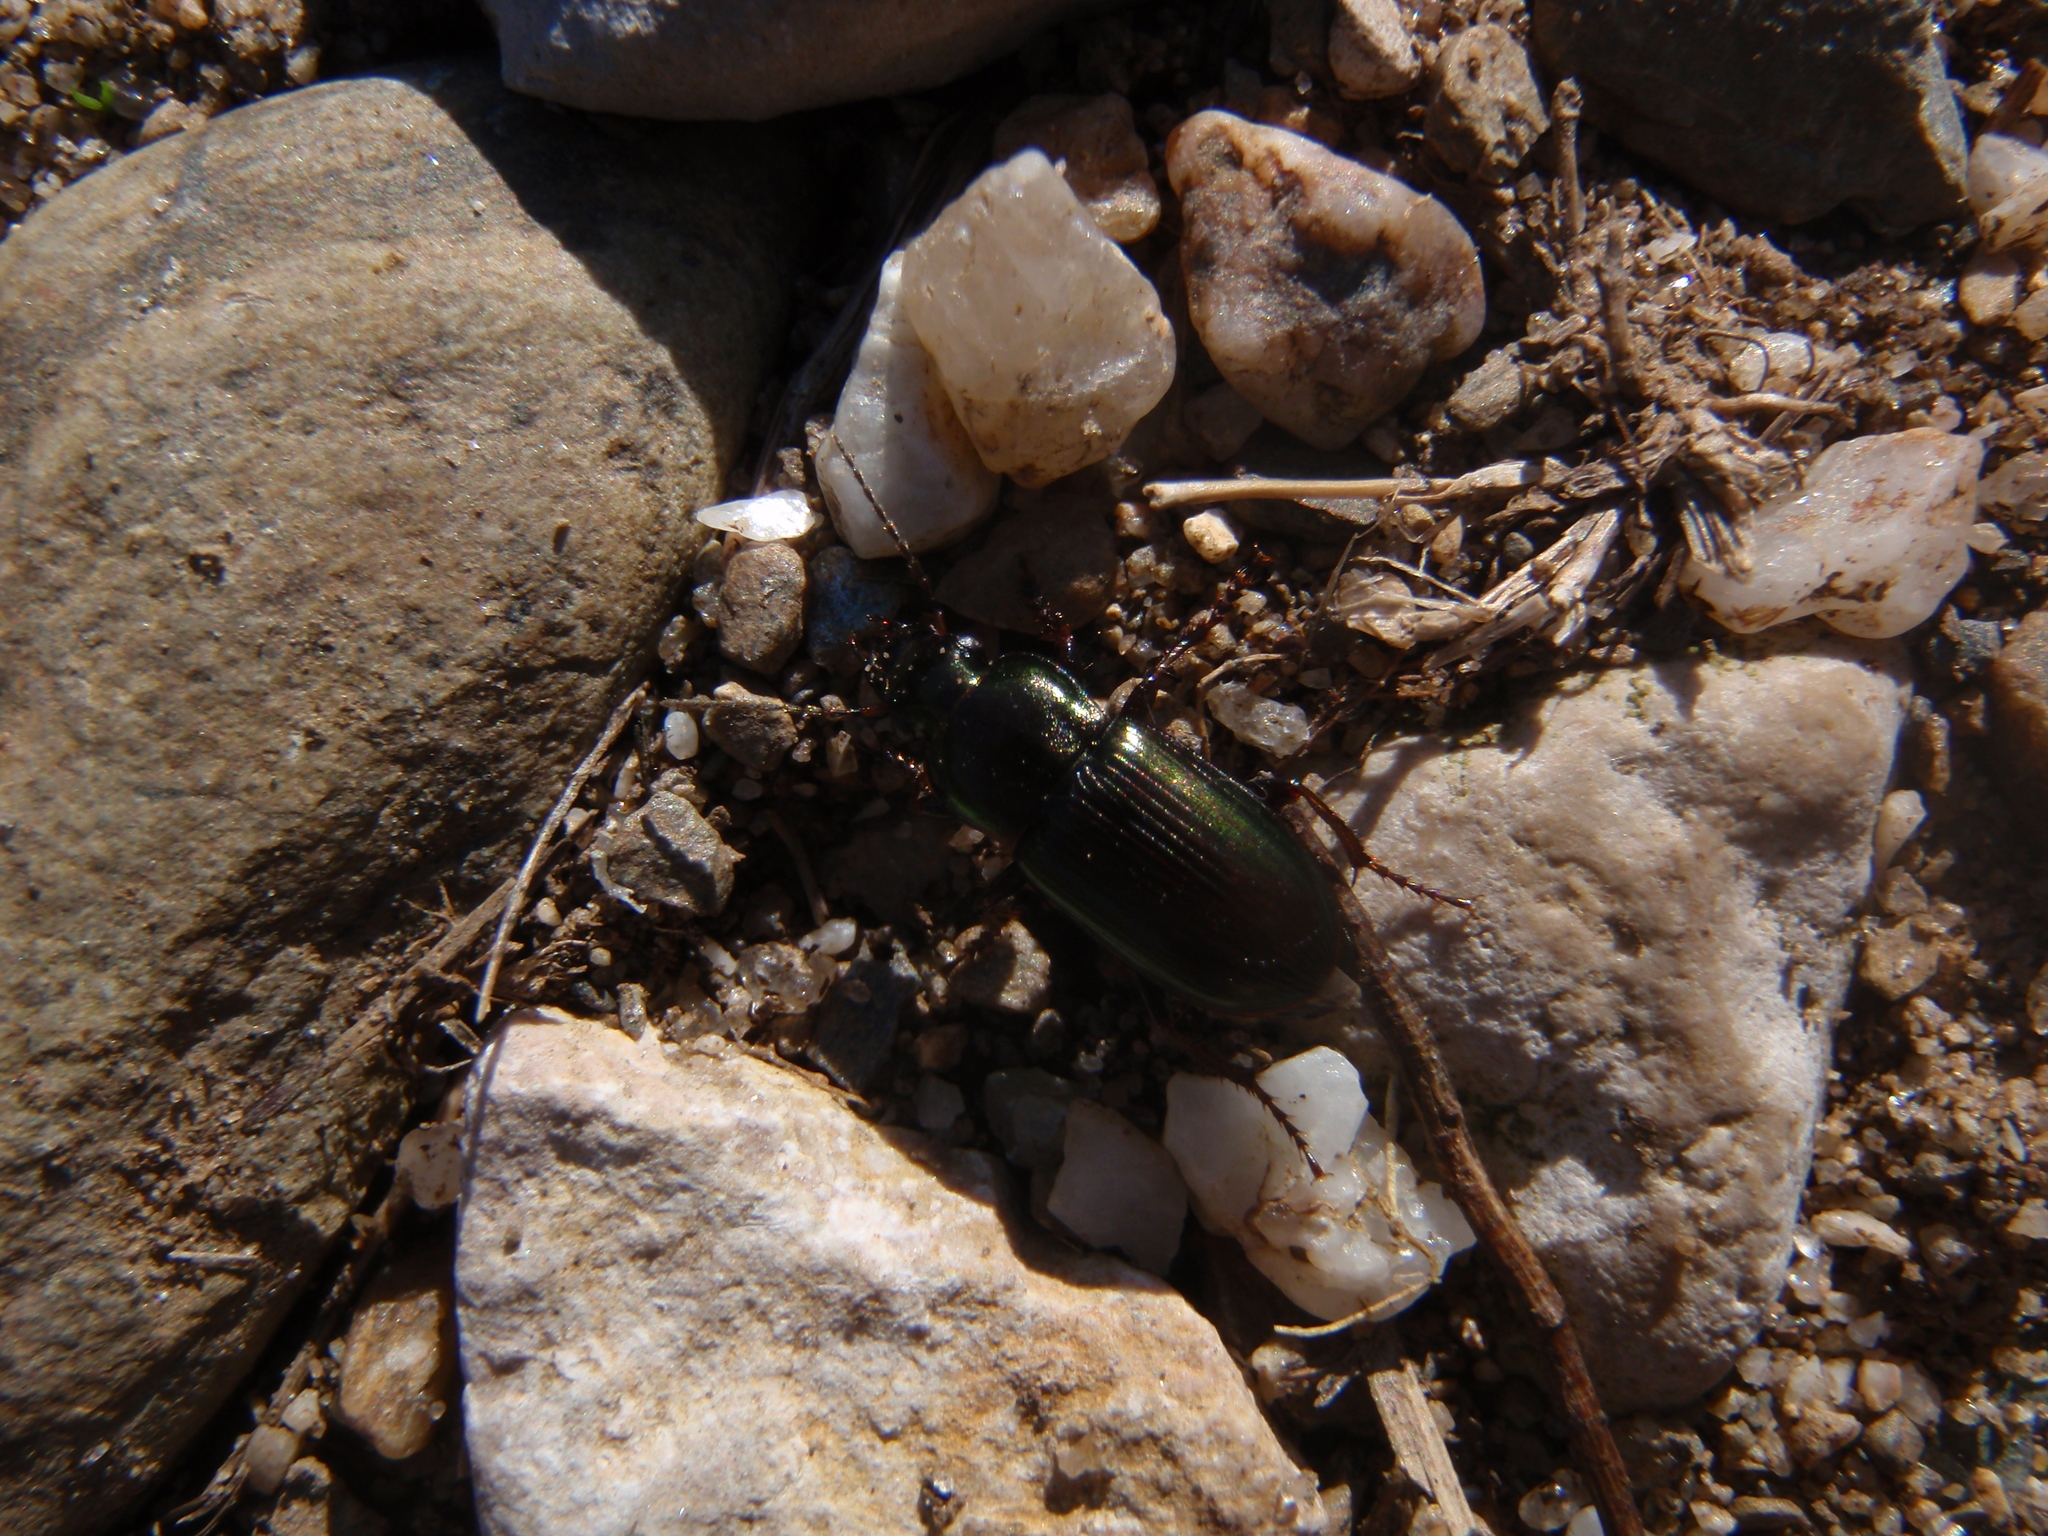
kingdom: Animalia
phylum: Arthropoda
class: Insecta
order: Coleoptera
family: Carabidae
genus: Harpalus
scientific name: Harpalus affinis
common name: Polychrome harp ground beetle
